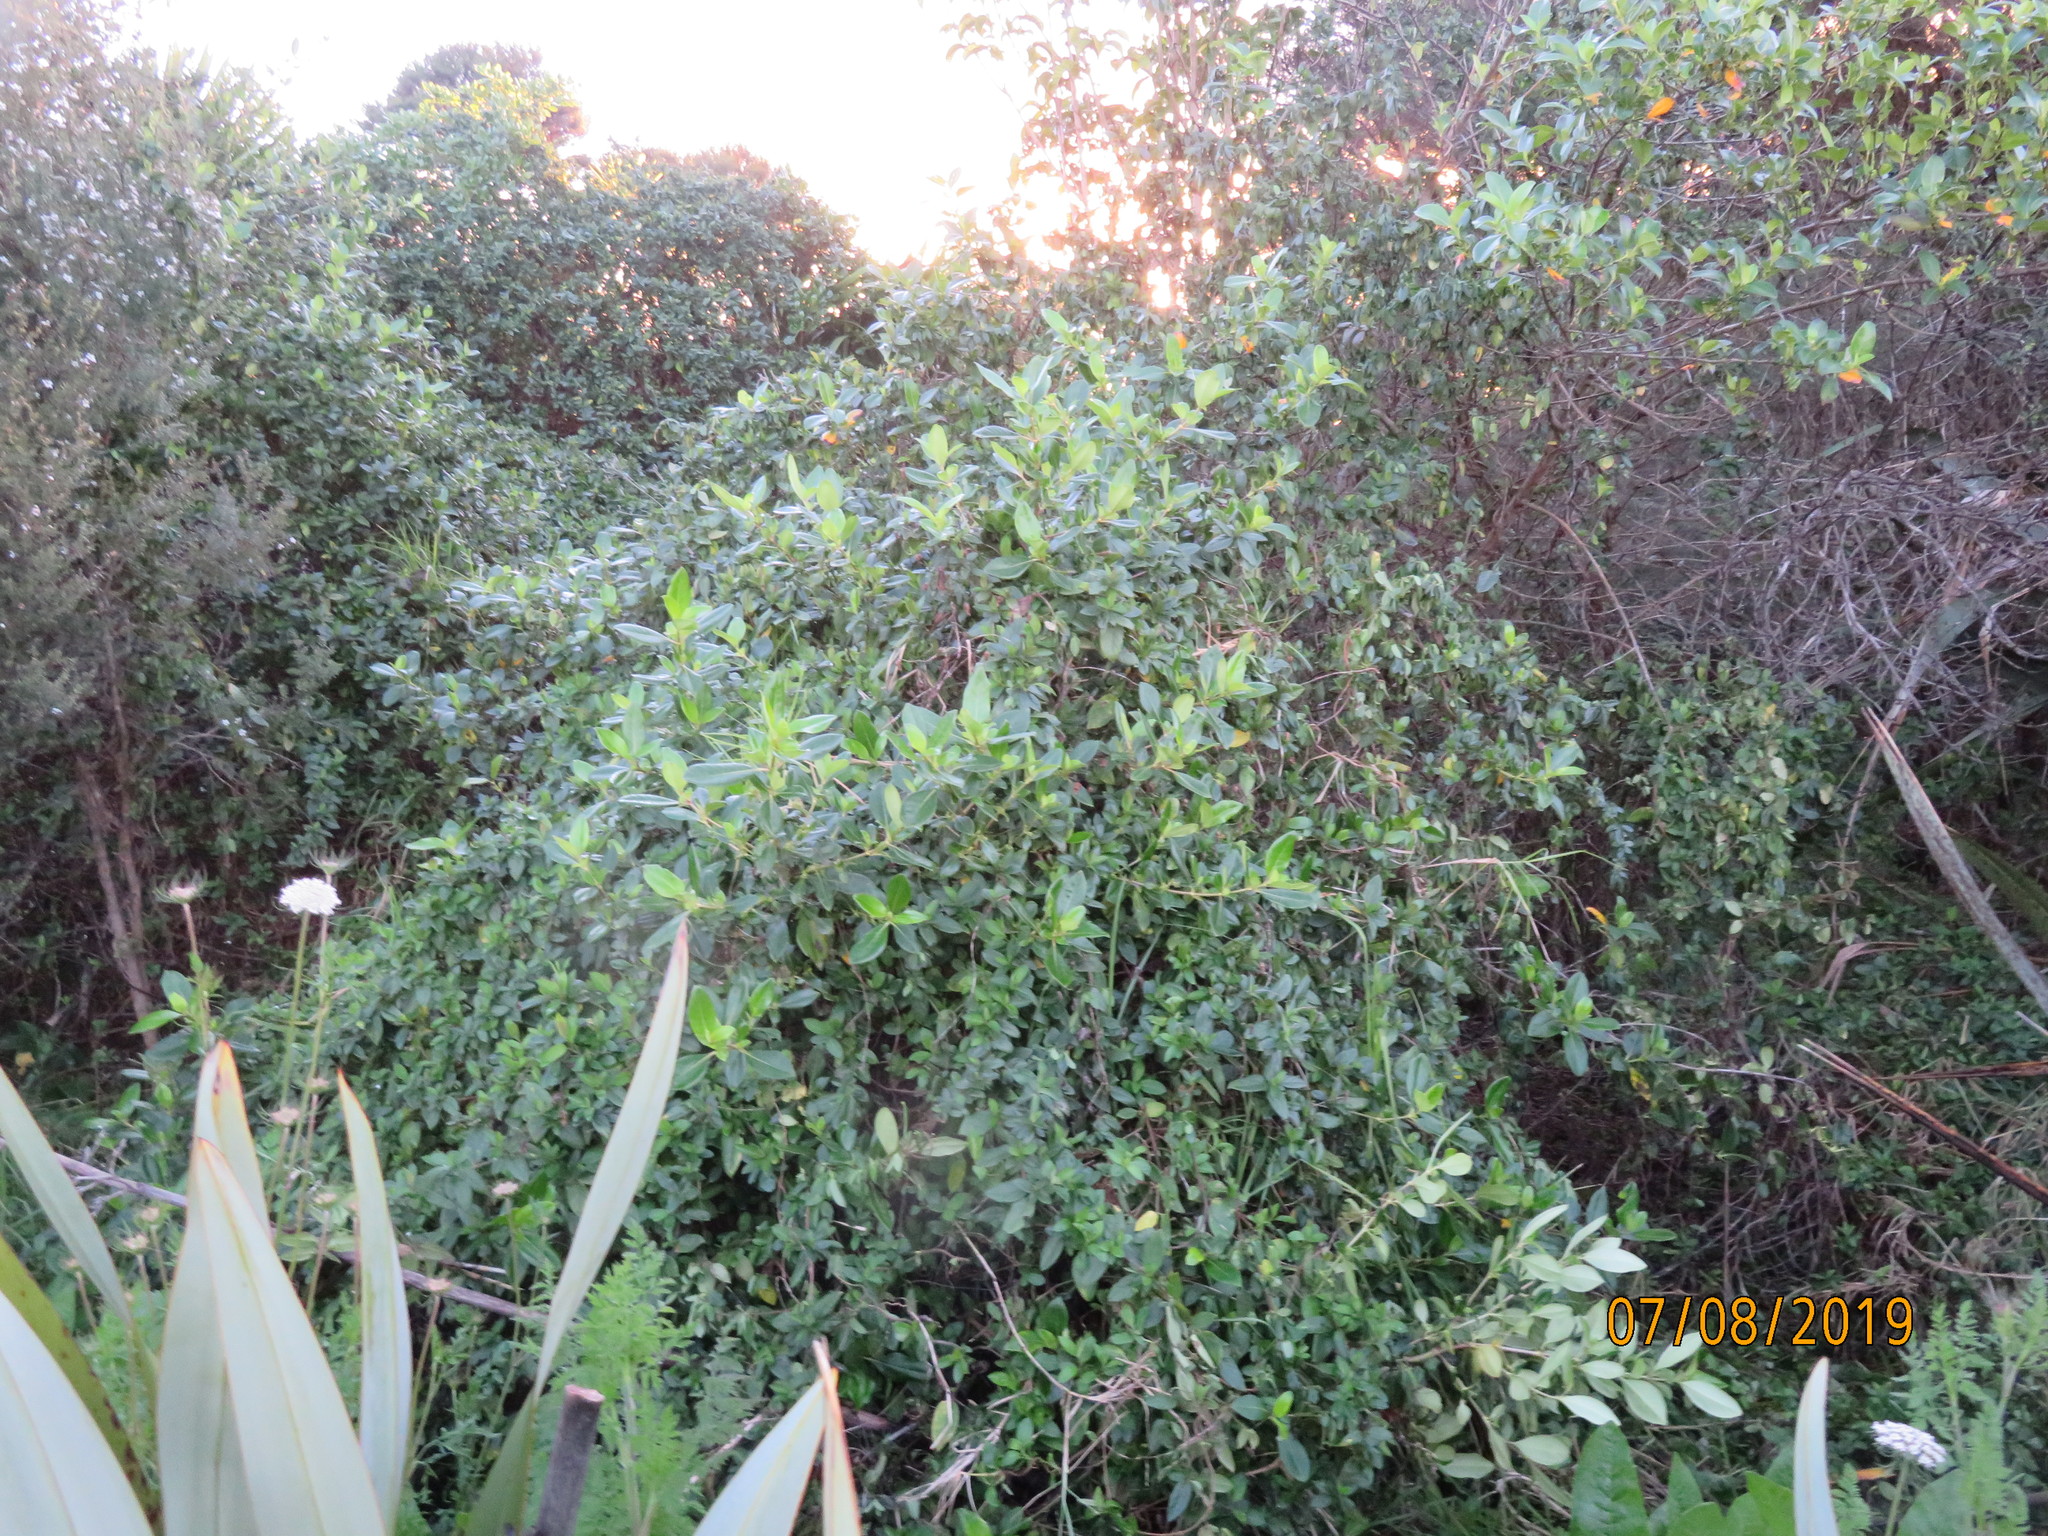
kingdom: Plantae
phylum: Tracheophyta
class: Magnoliopsida
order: Gentianales
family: Rubiaceae
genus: Coprosma
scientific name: Coprosma robusta
